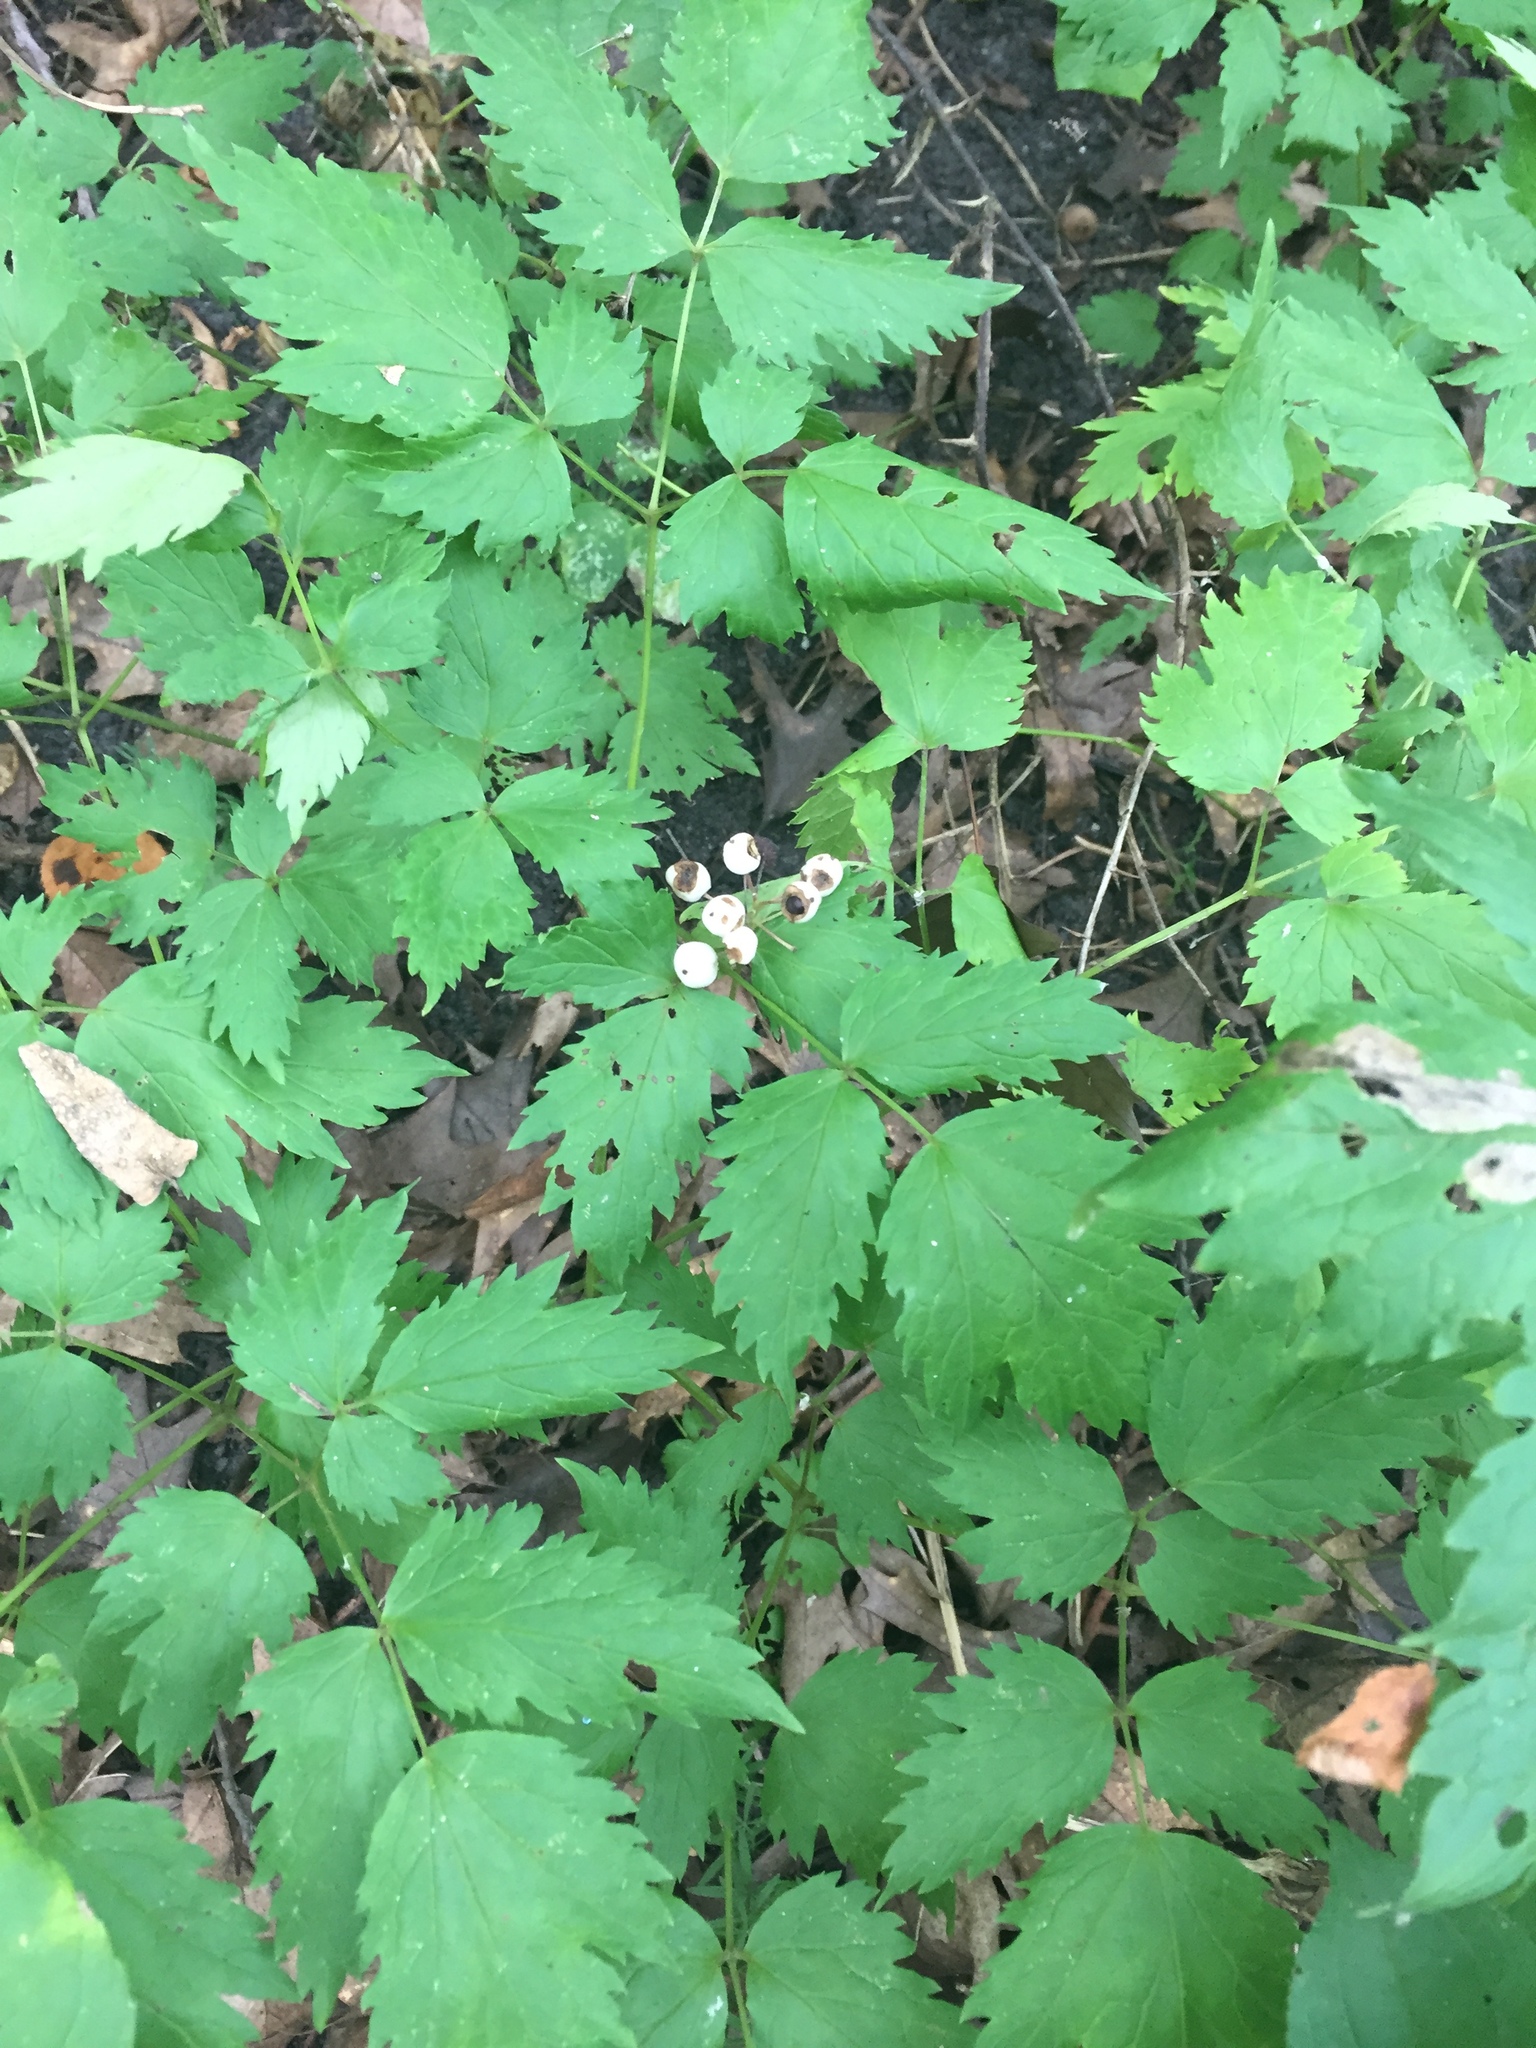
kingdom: Plantae
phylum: Tracheophyta
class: Magnoliopsida
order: Ranunculales
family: Ranunculaceae
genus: Actaea
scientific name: Actaea rubra
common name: Red baneberry
